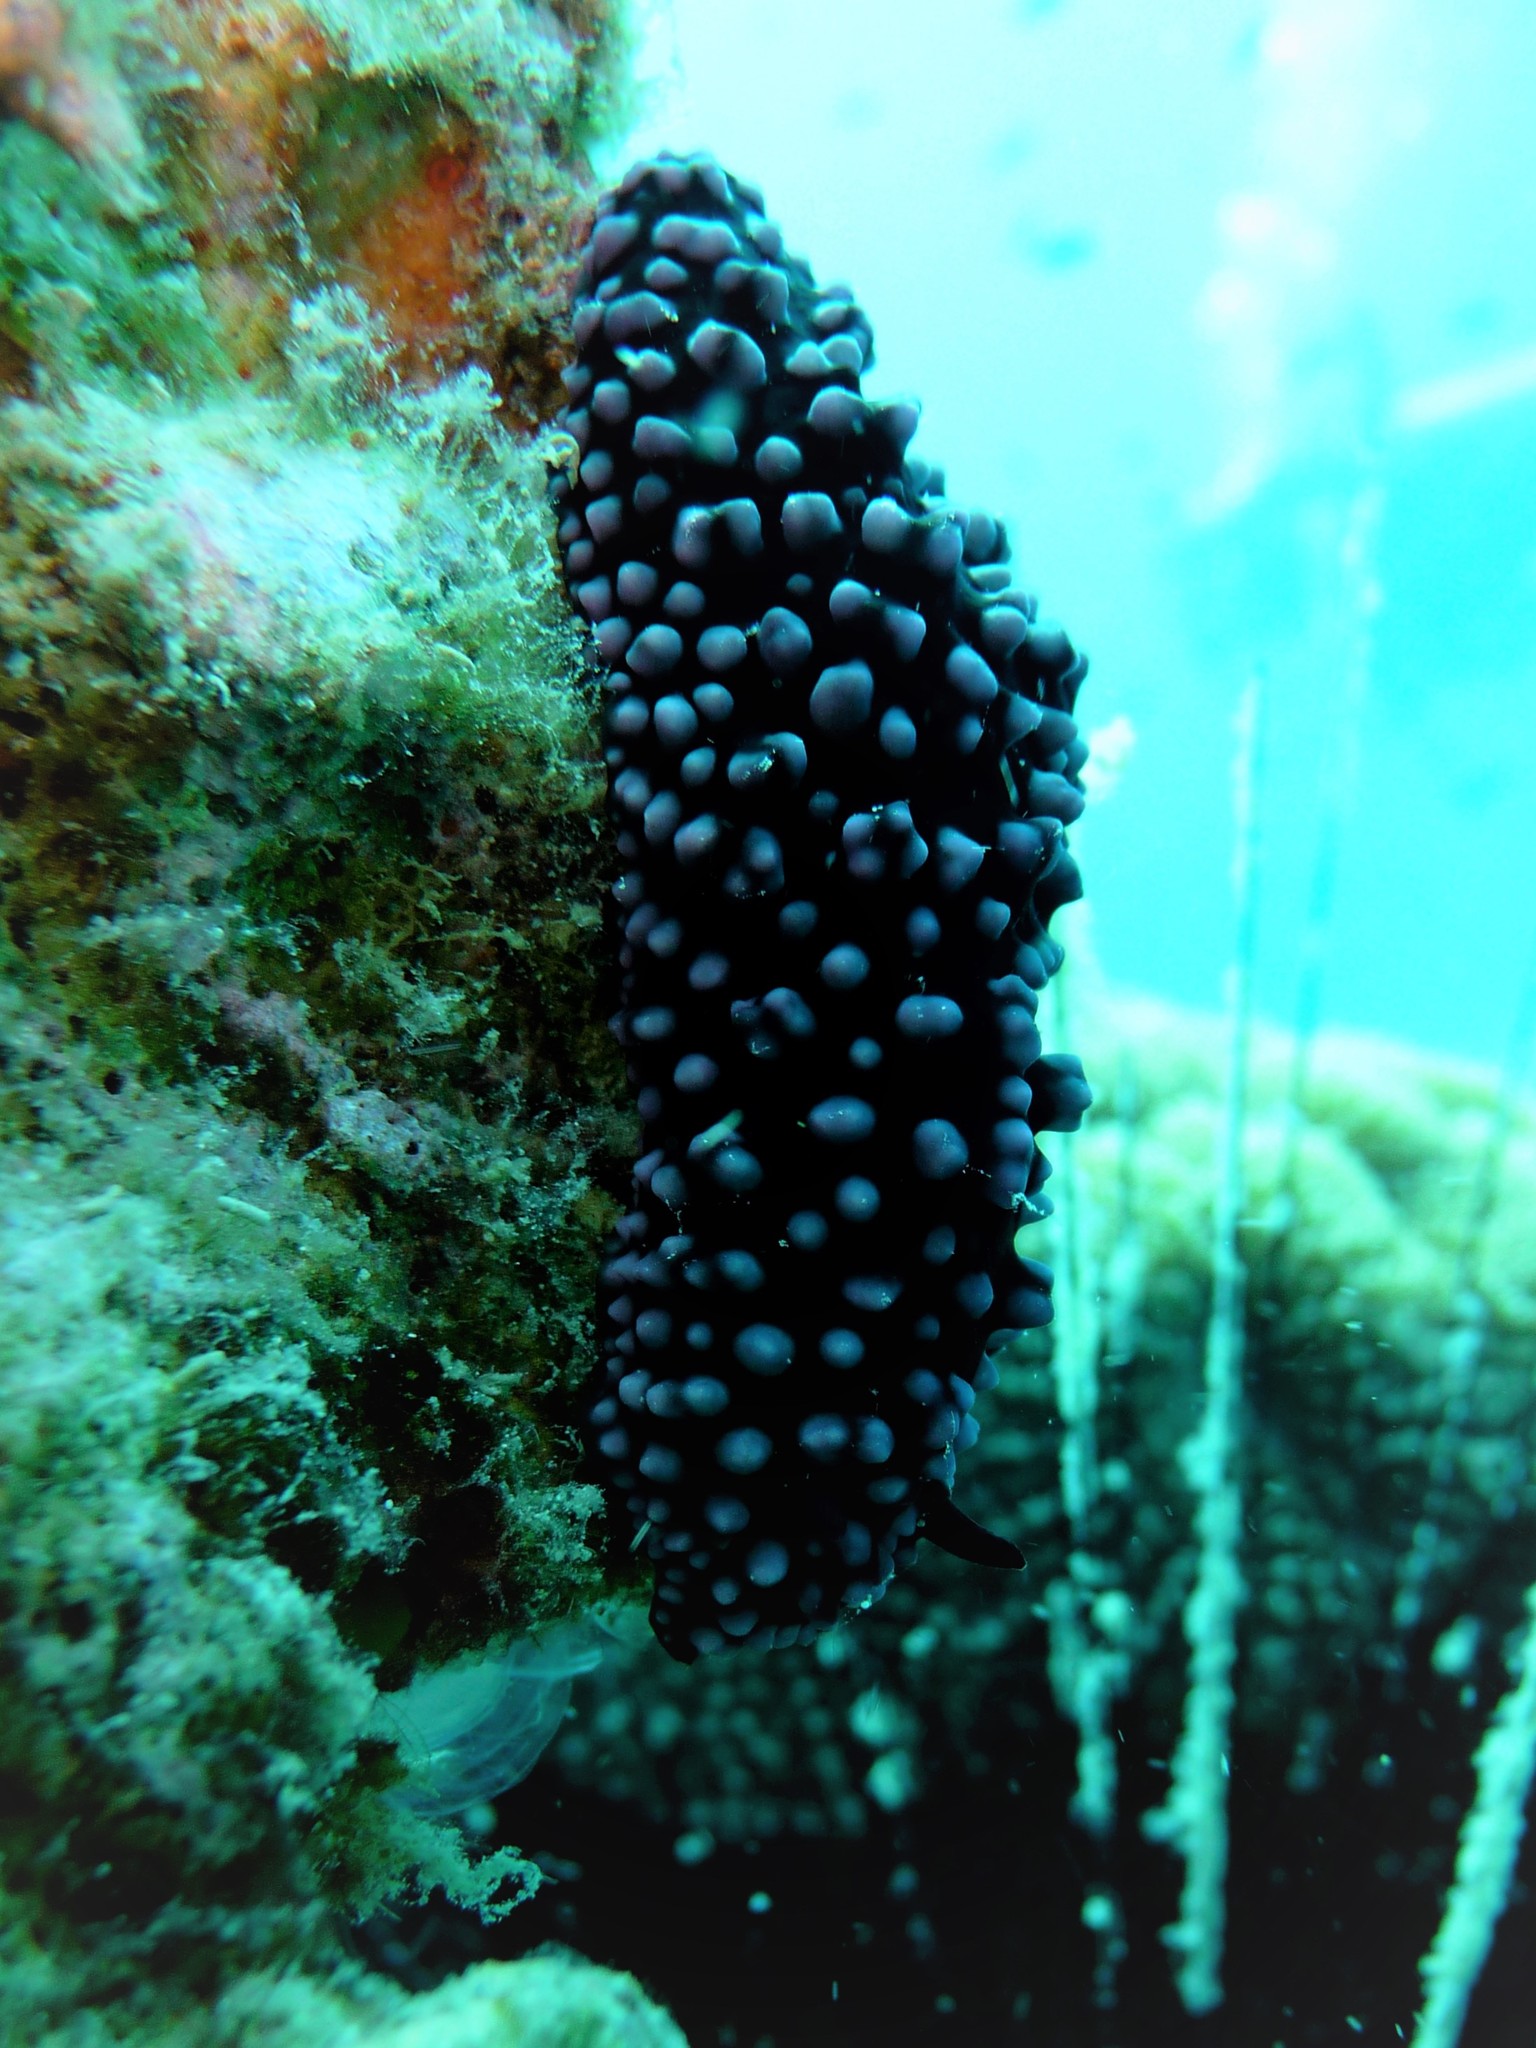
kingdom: Animalia
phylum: Mollusca
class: Gastropoda
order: Nudibranchia
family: Phyllidiidae
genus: Phyllidiella
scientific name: Phyllidiella nigra
